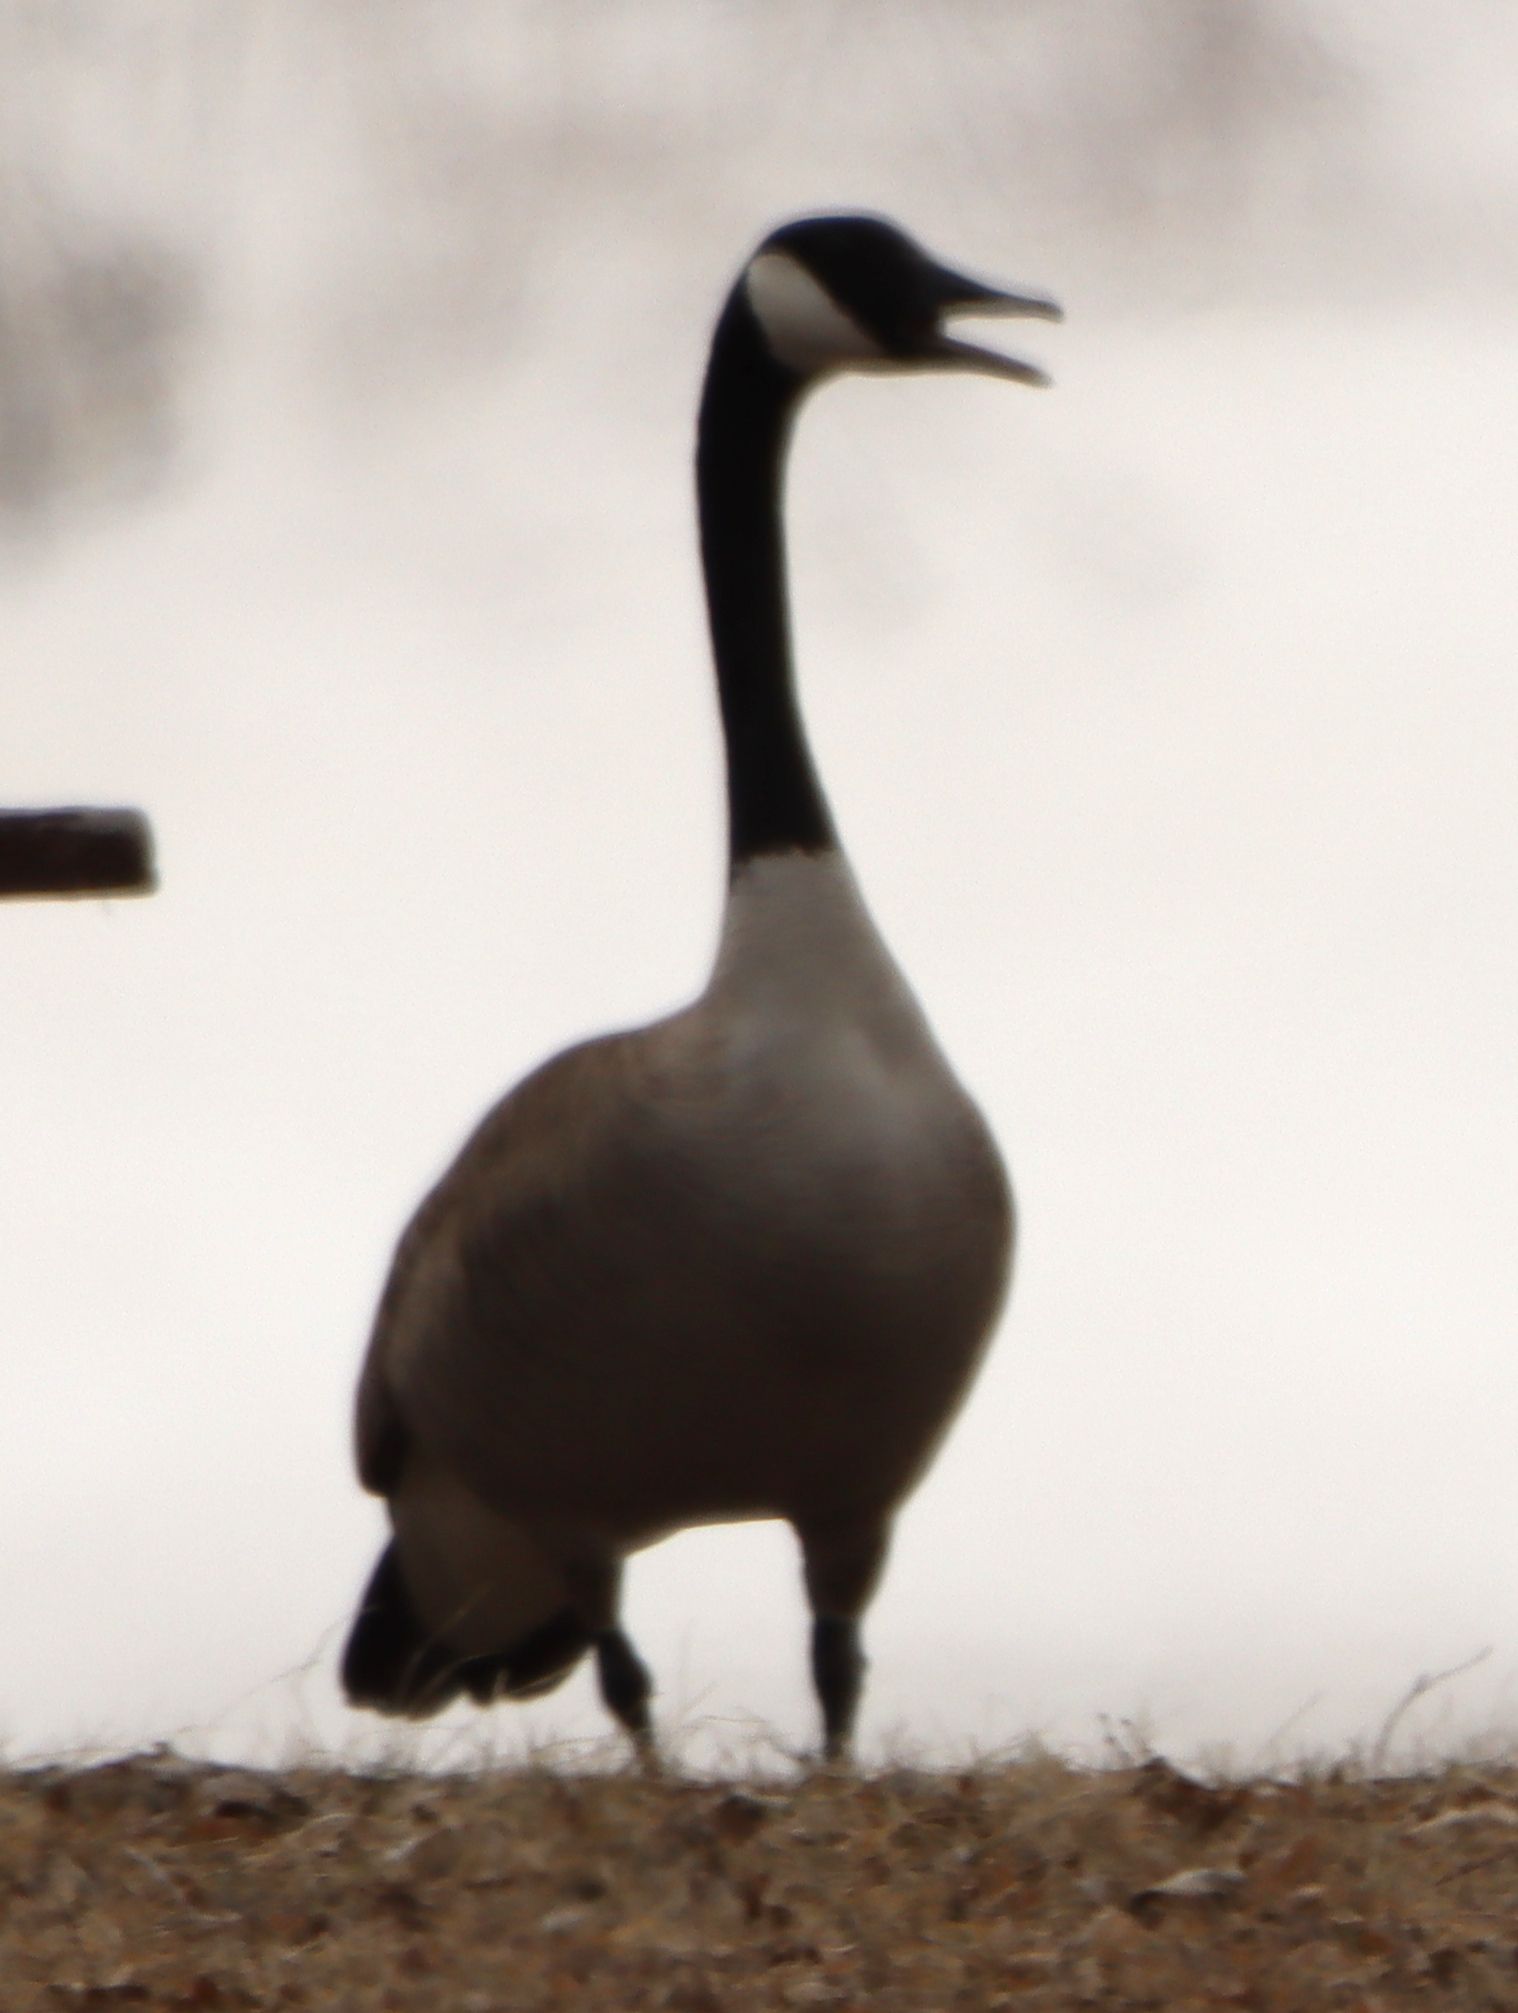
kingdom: Animalia
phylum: Chordata
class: Aves
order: Anseriformes
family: Anatidae
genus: Branta
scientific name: Branta canadensis
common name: Canada goose
